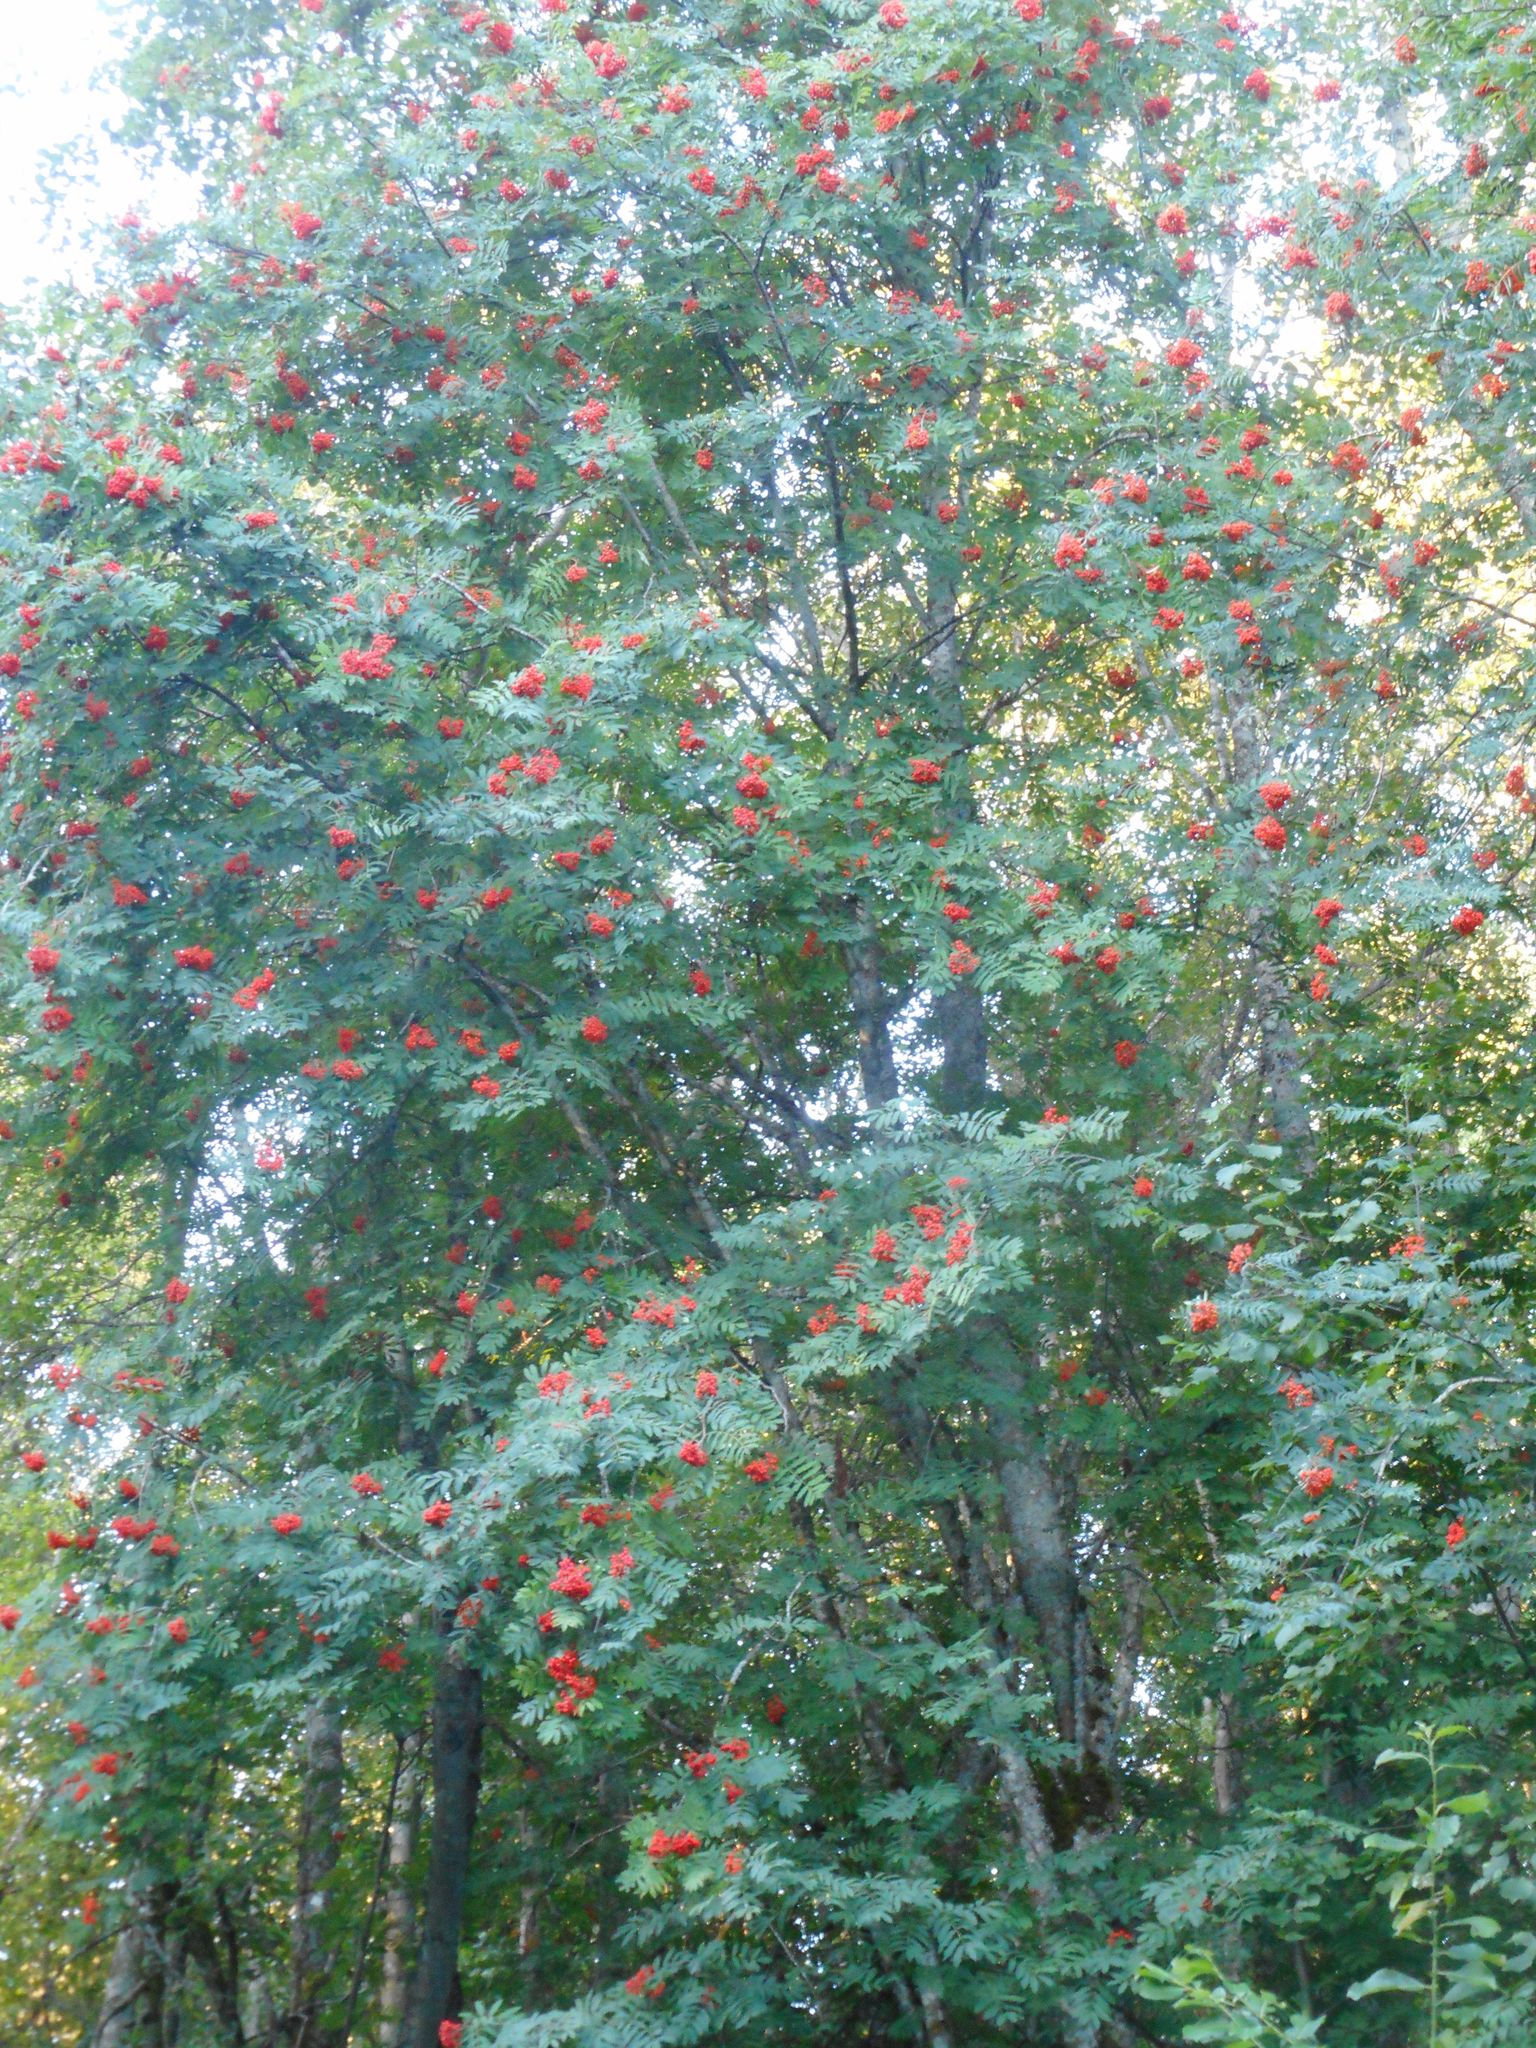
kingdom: Plantae
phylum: Tracheophyta
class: Magnoliopsida
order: Rosales
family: Rosaceae
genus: Sorbus
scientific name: Sorbus aucuparia
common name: Rowan
